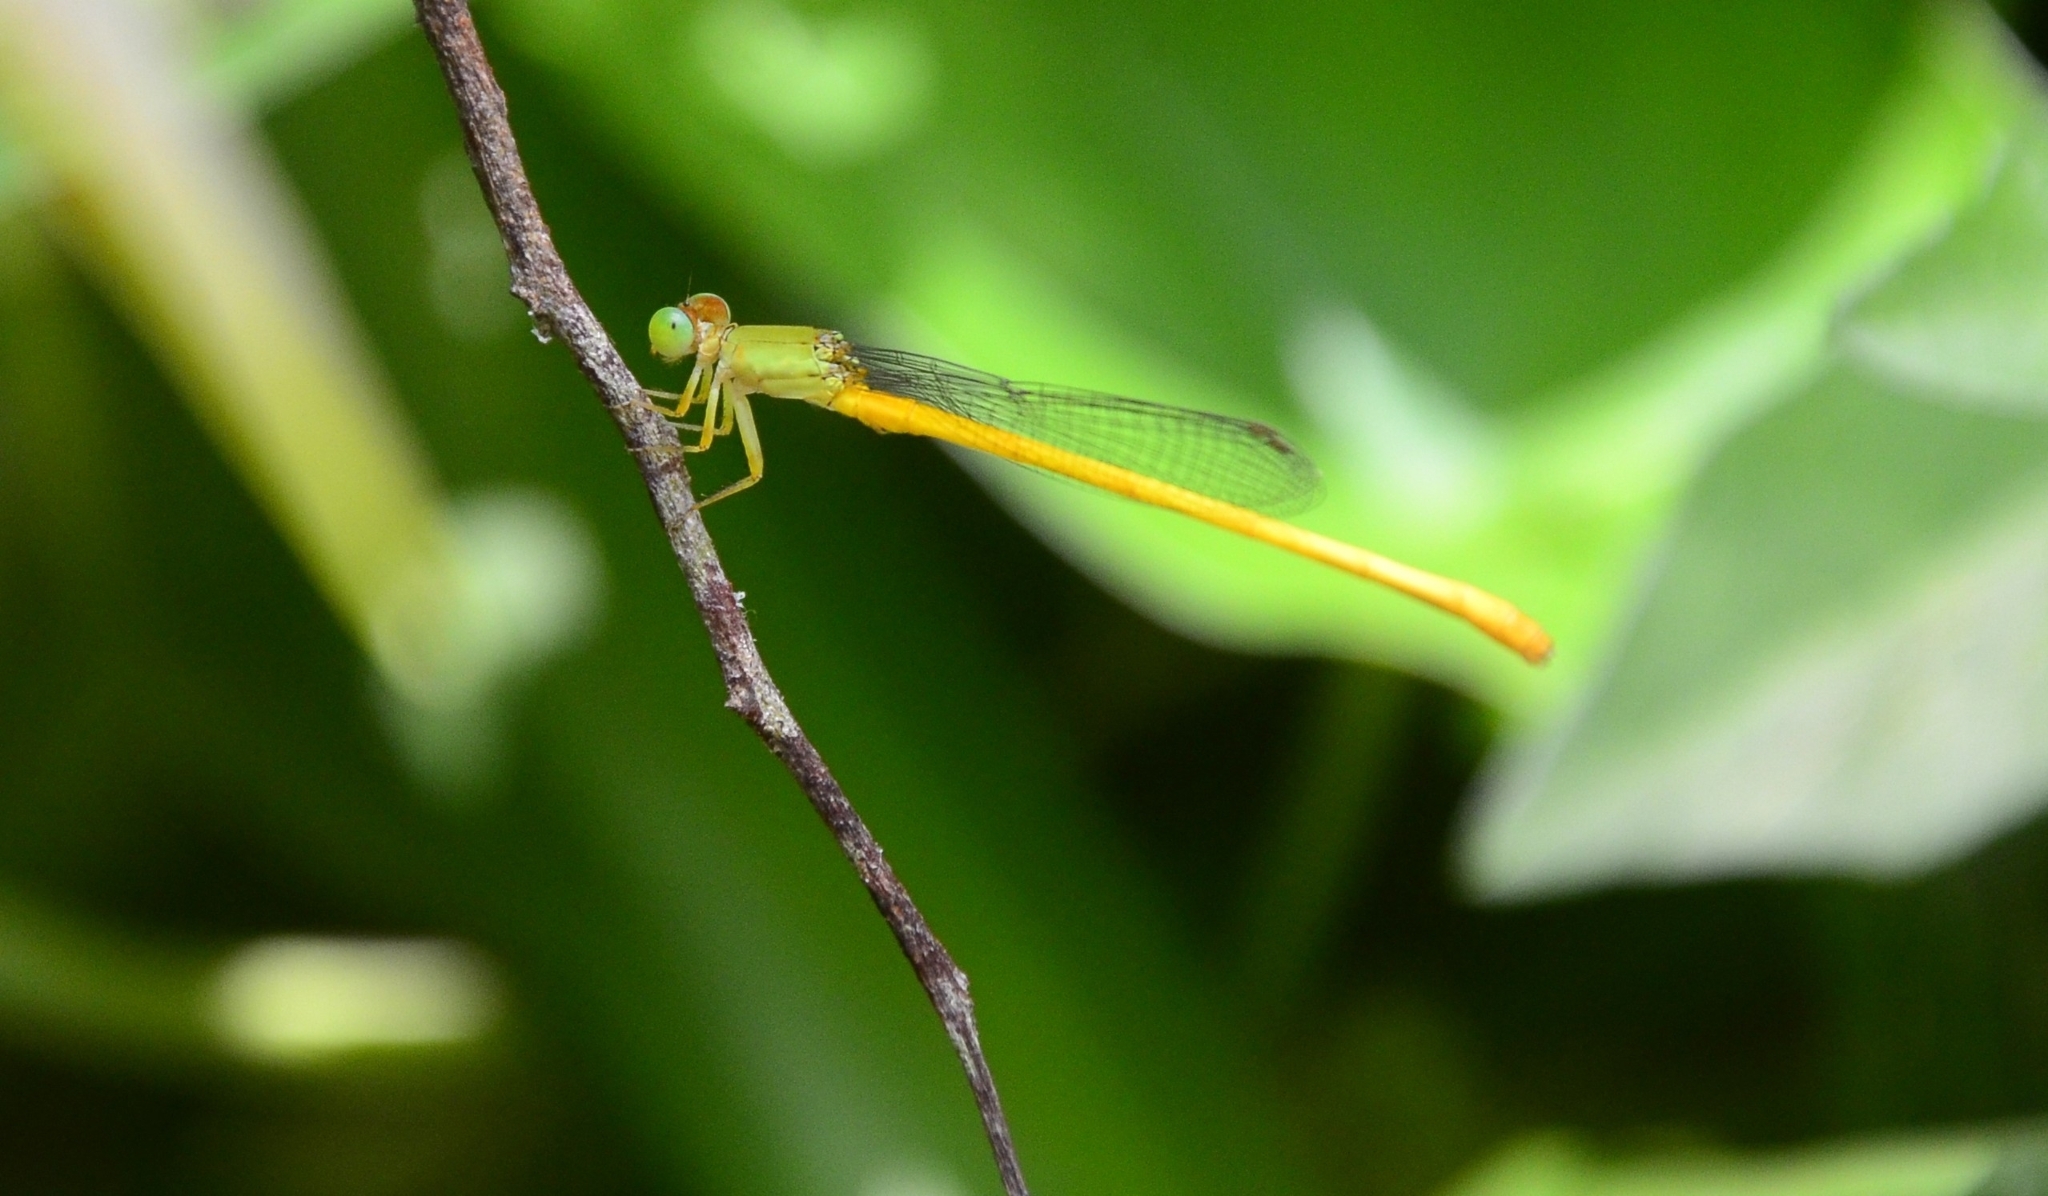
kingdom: Animalia
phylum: Arthropoda
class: Insecta
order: Odonata
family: Coenagrionidae
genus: Ceriagrion
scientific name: Ceriagrion coromandelianum
